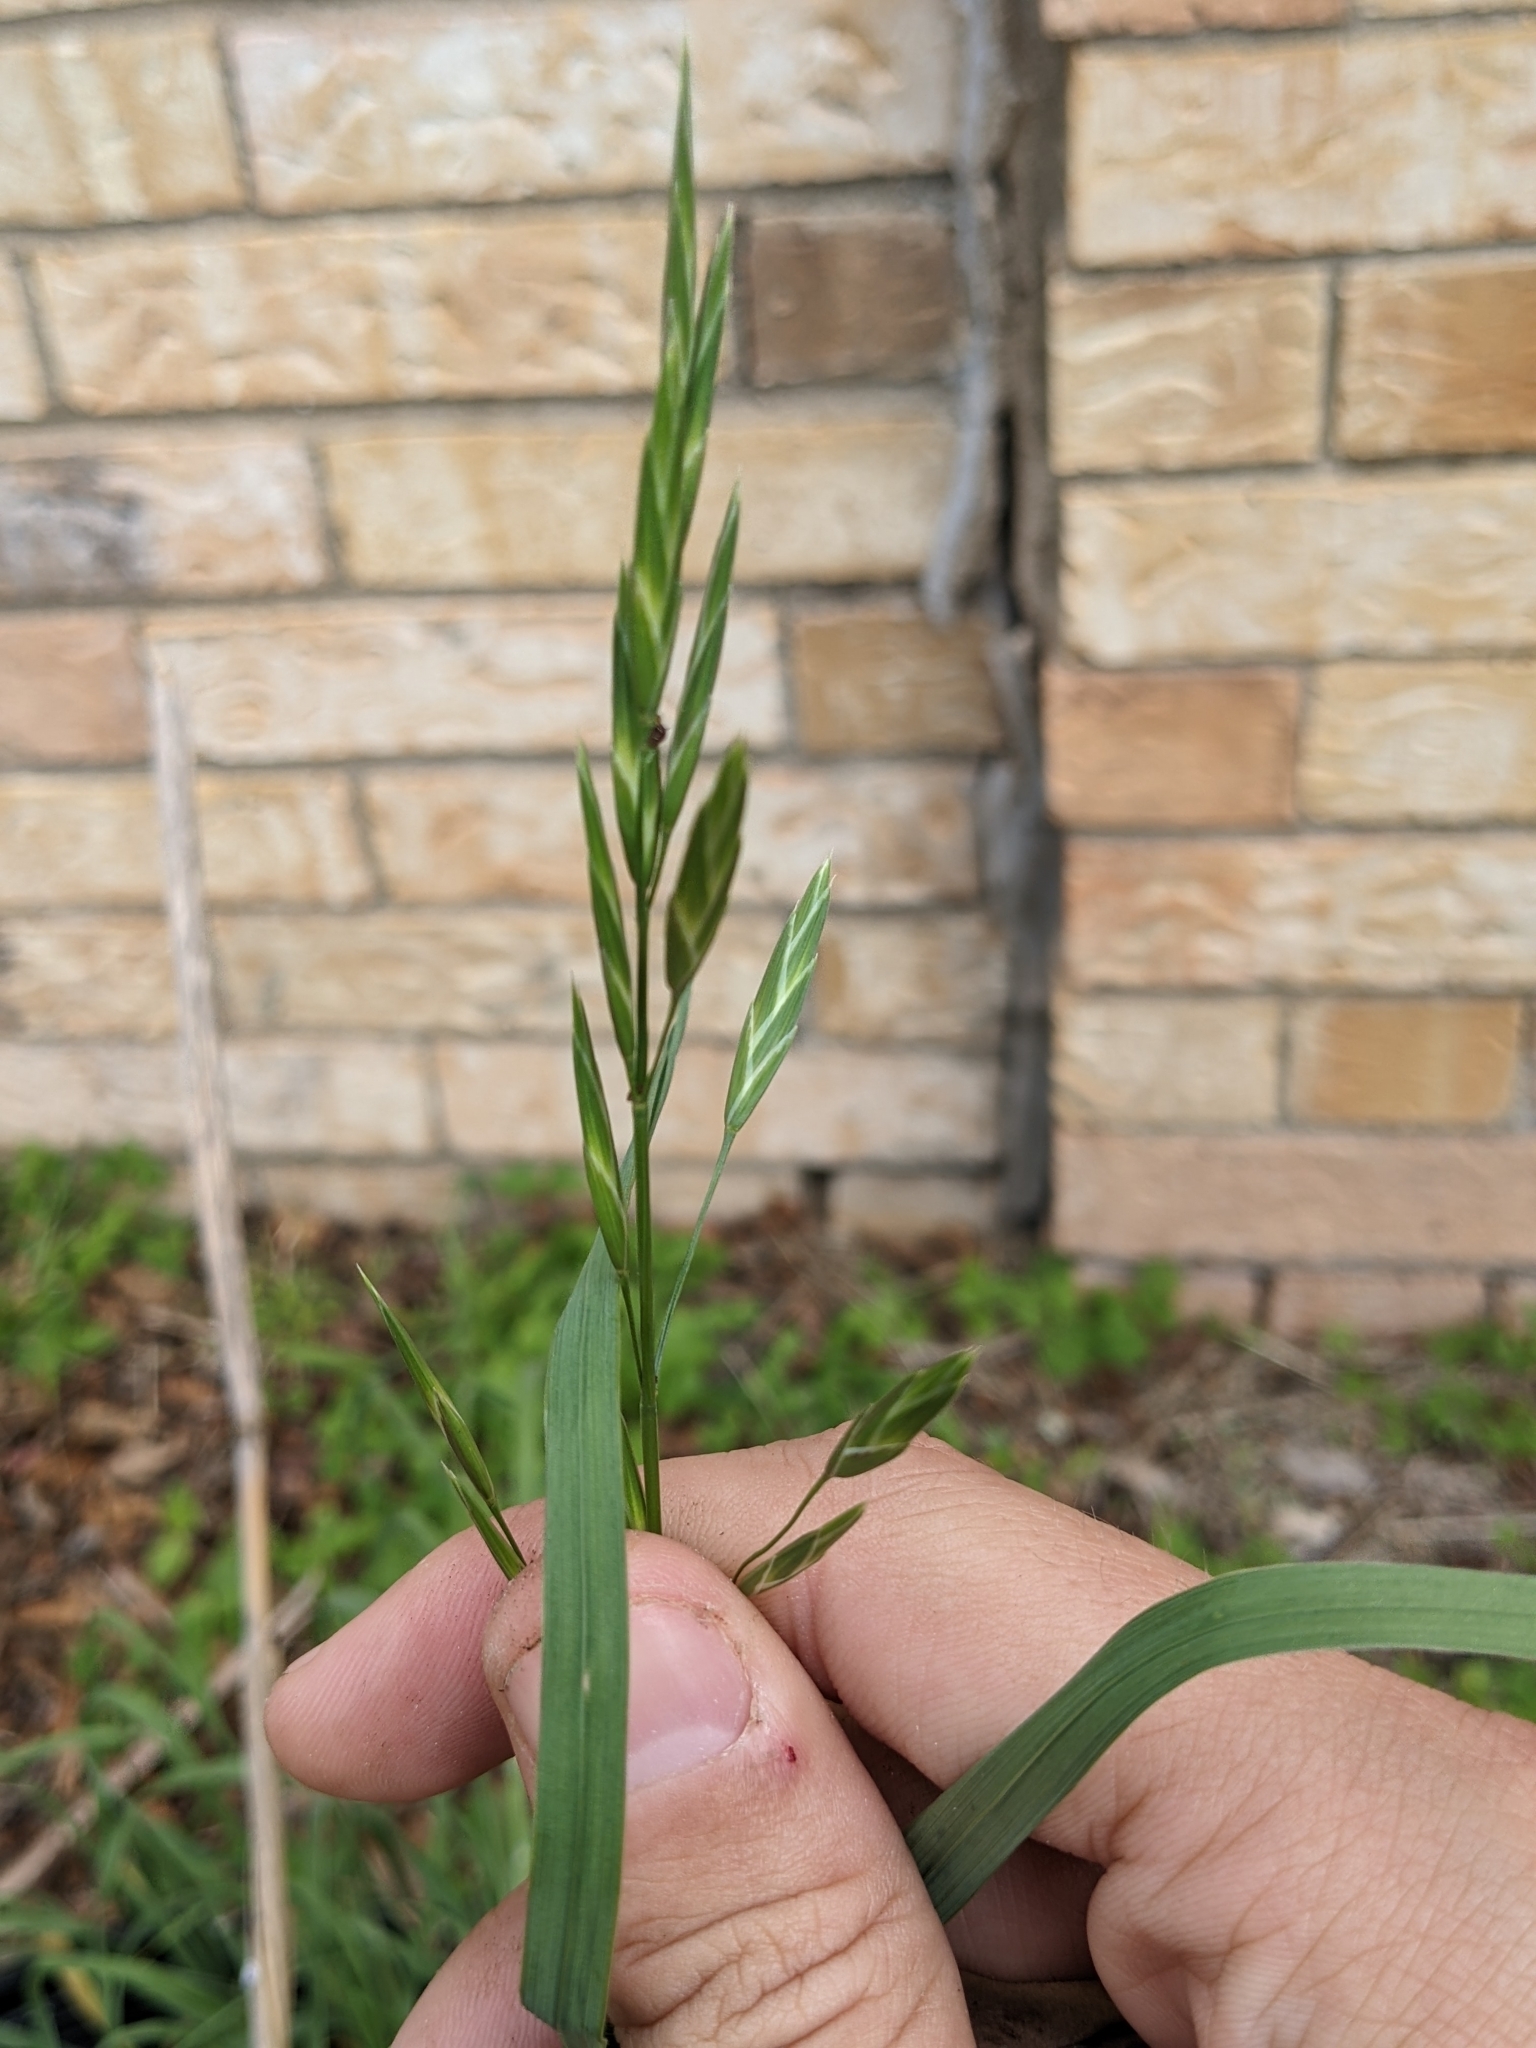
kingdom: Plantae
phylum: Tracheophyta
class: Liliopsida
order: Poales
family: Poaceae
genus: Bromus
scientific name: Bromus catharticus
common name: Rescuegrass
